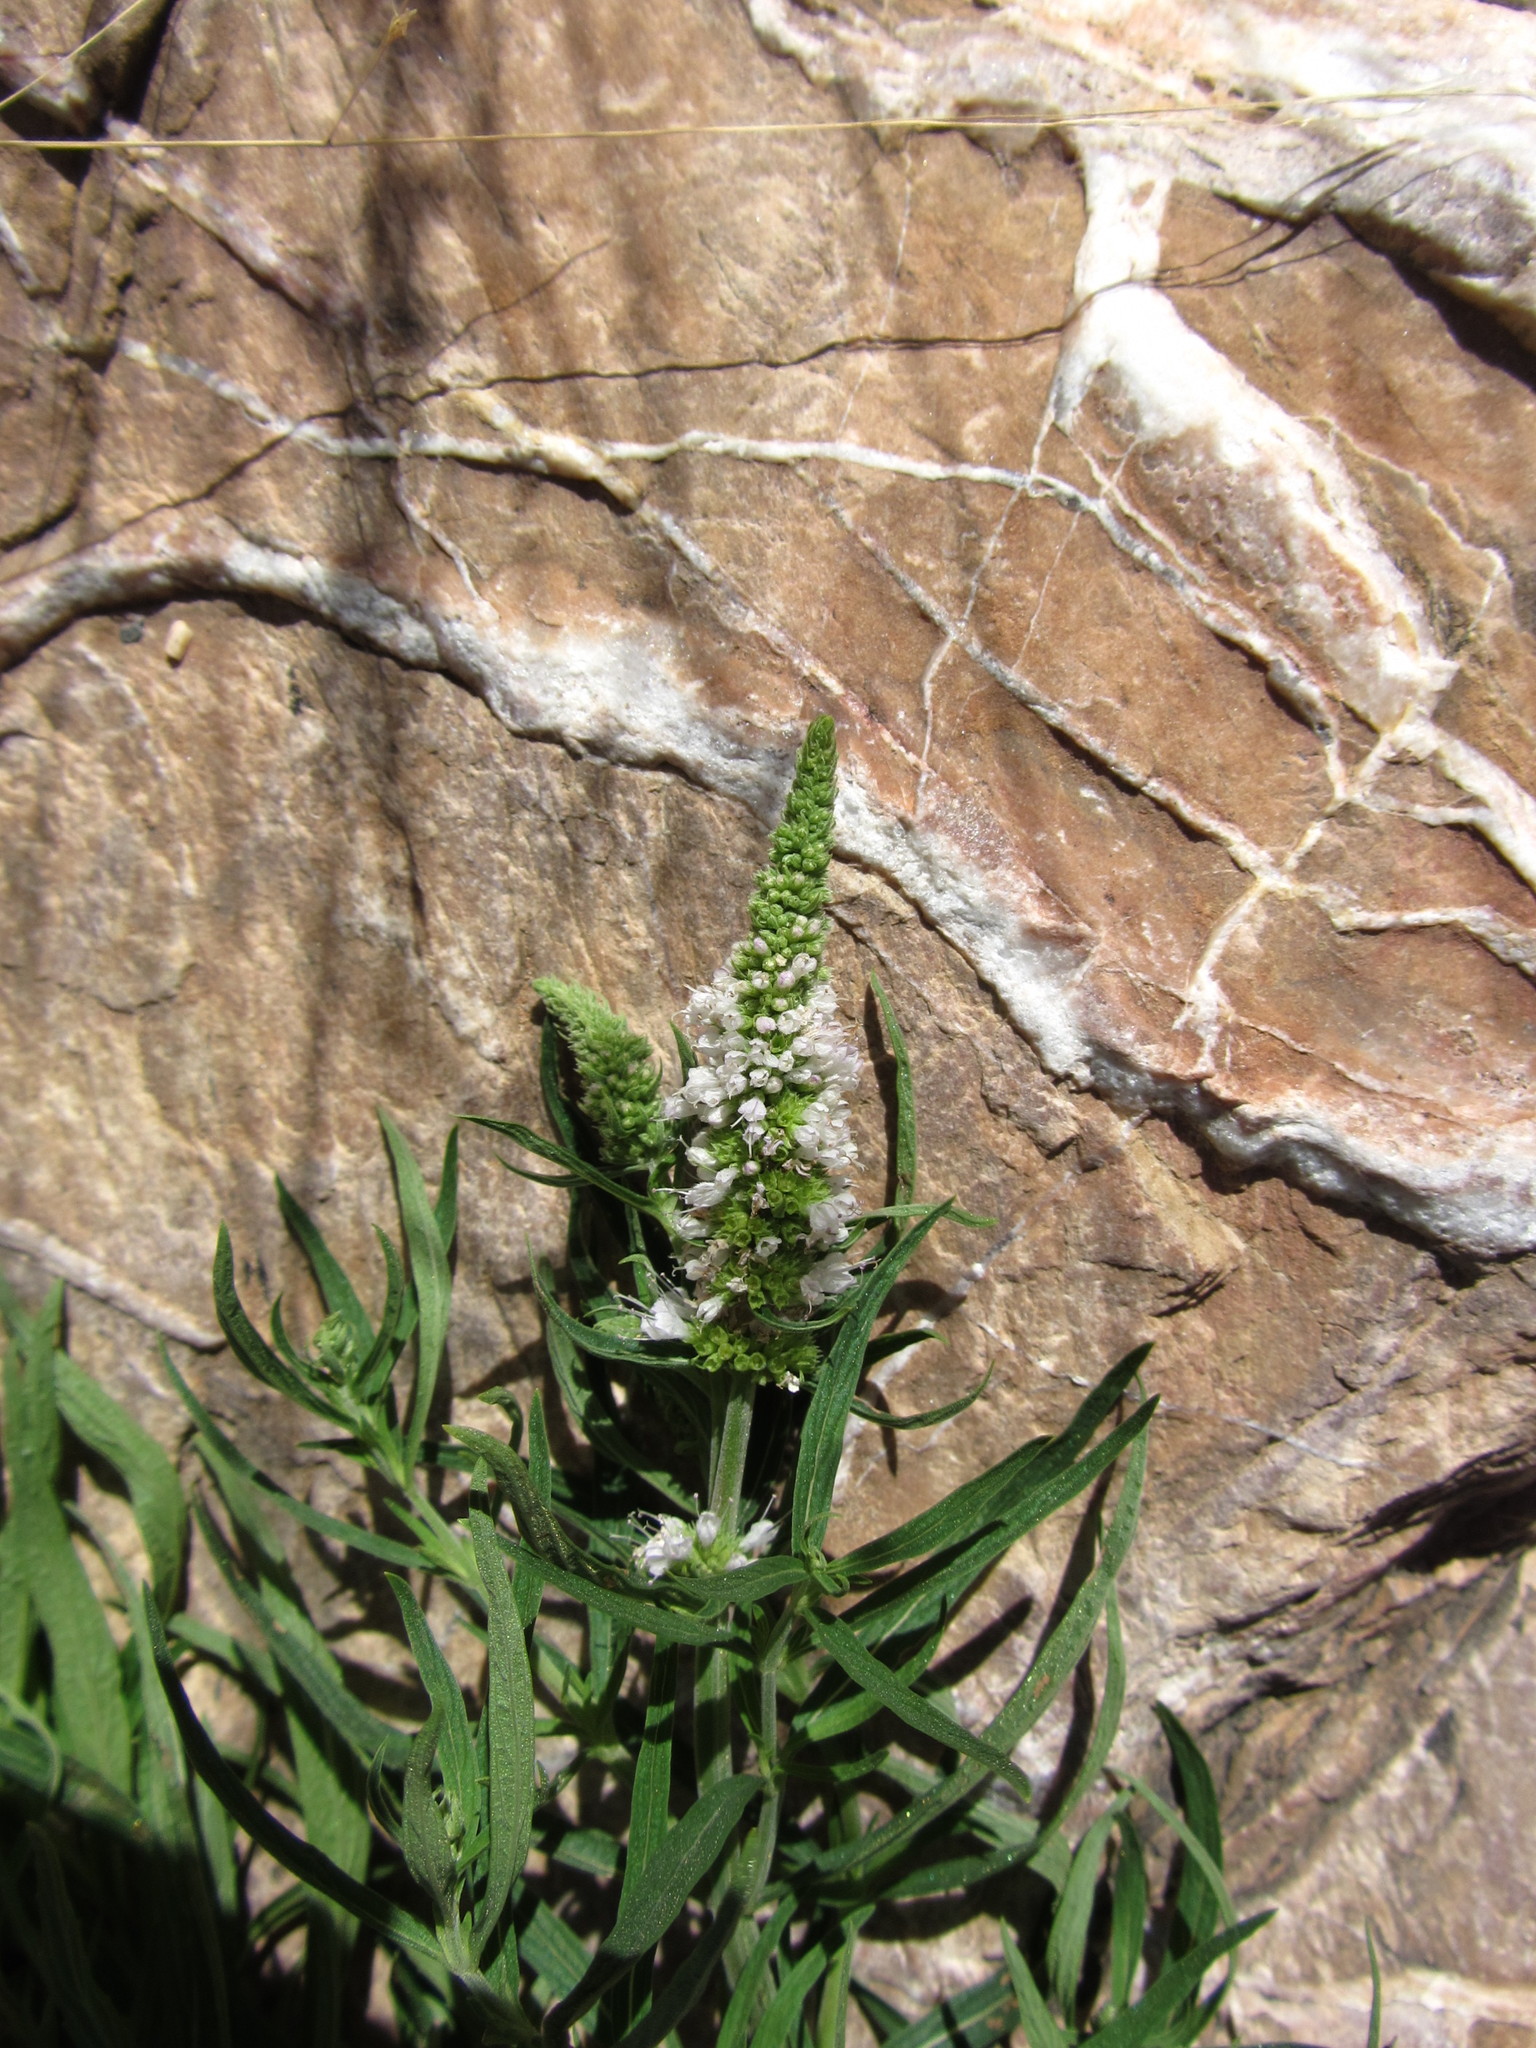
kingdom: Plantae
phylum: Tracheophyta
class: Magnoliopsida
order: Lamiales
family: Lamiaceae
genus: Mentha
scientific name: Mentha longifolia
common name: Horse mint
